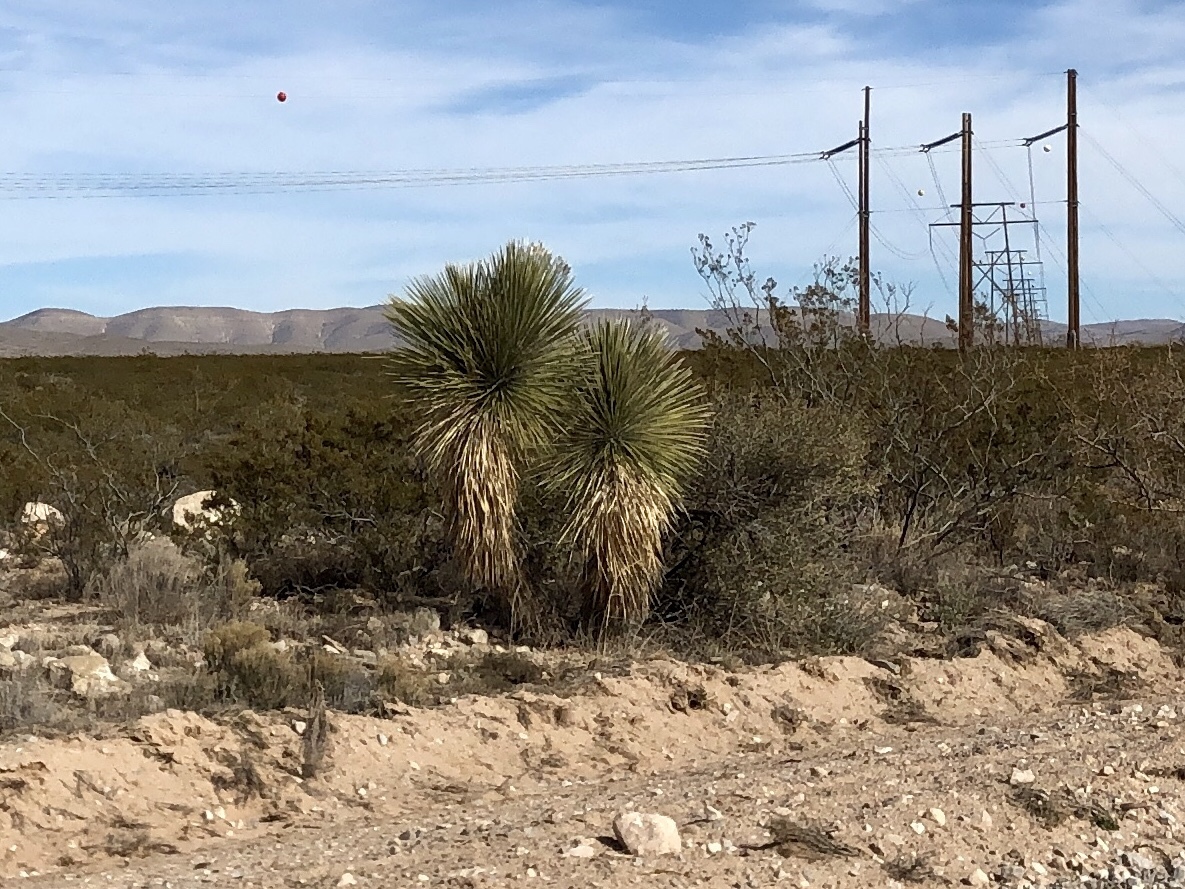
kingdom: Plantae
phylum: Tracheophyta
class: Liliopsida
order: Asparagales
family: Asparagaceae
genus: Yucca
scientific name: Yucca elata
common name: Palmella
